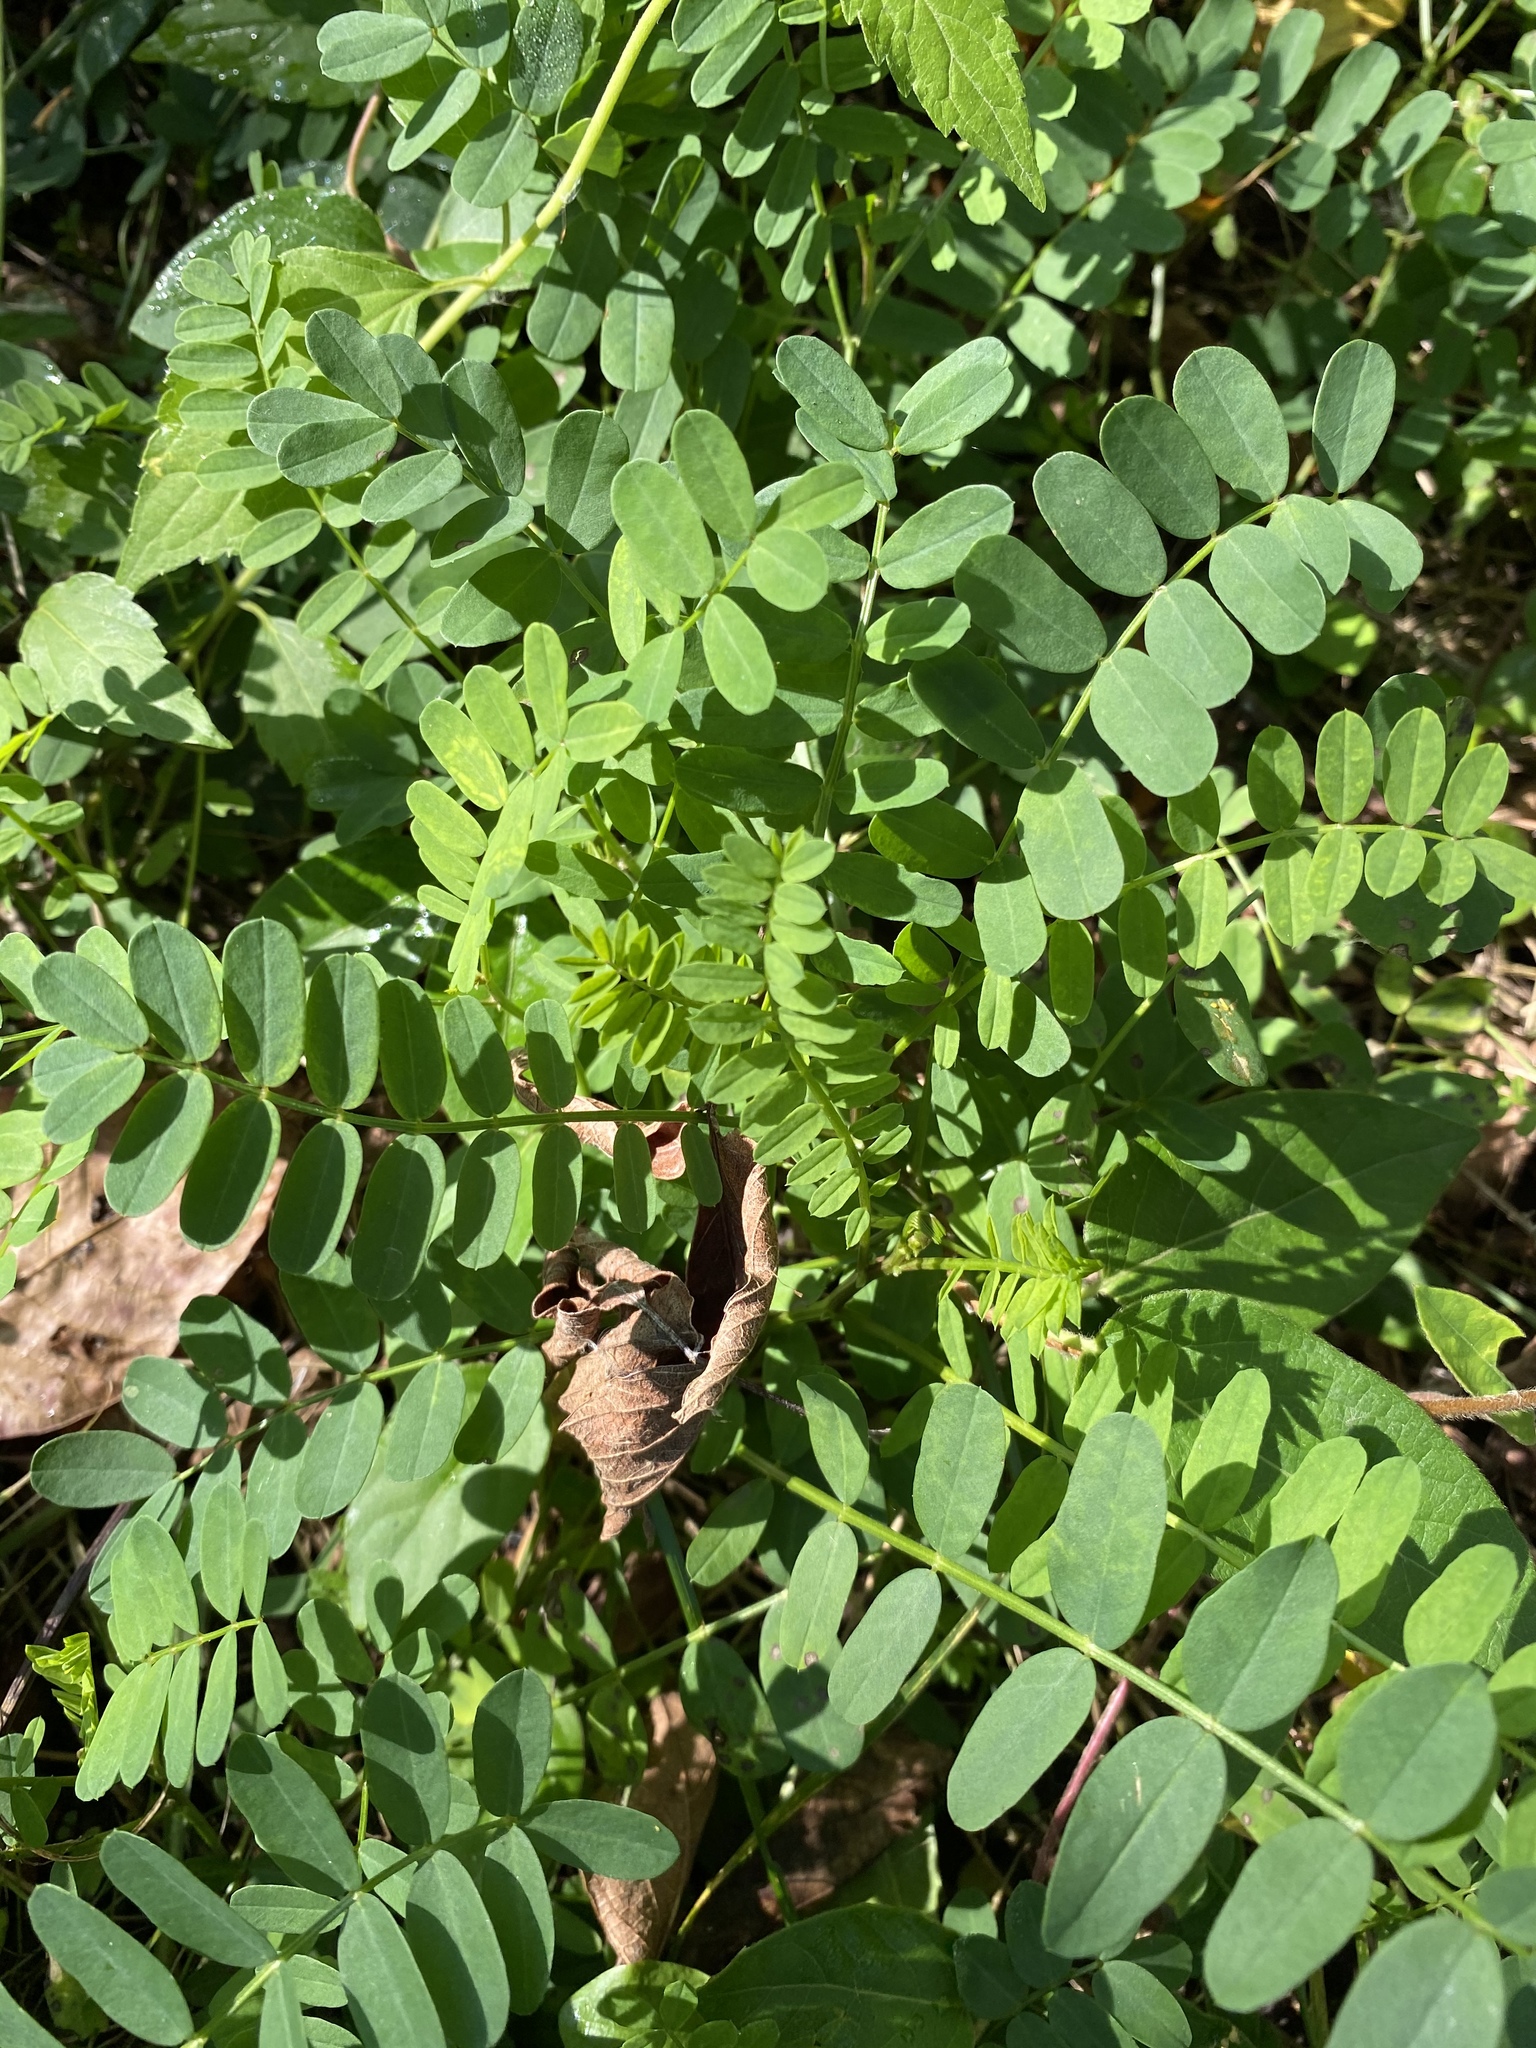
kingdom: Plantae
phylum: Tracheophyta
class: Magnoliopsida
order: Fabales
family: Fabaceae
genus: Coronilla
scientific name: Coronilla varia
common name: Crownvetch
